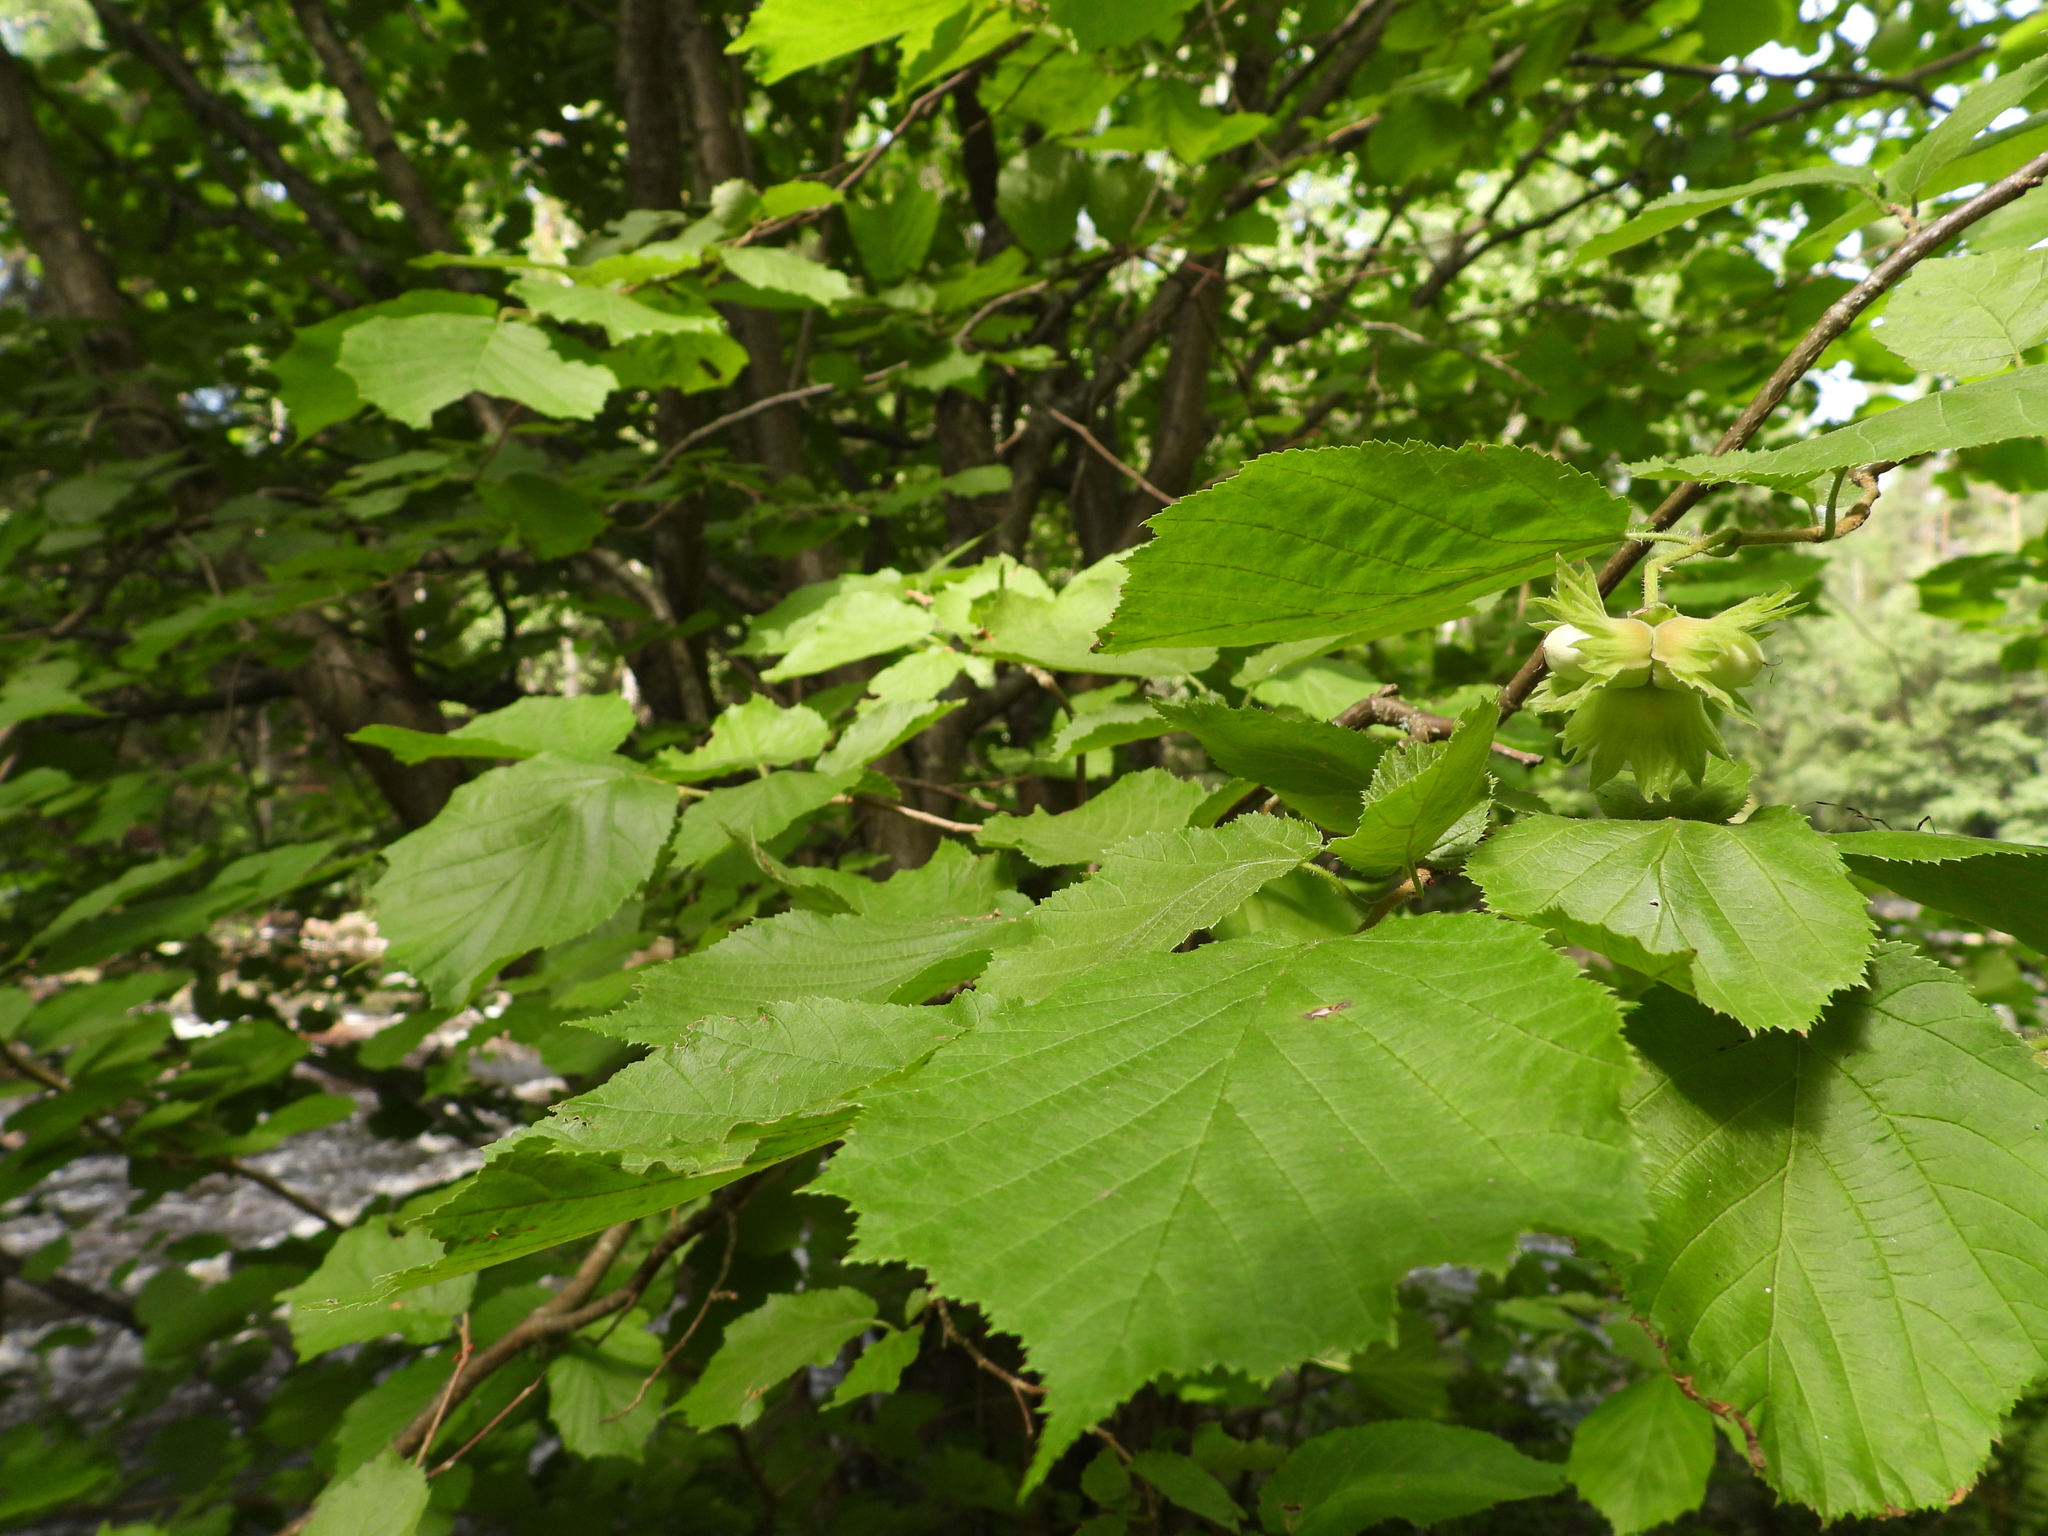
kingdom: Plantae
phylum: Tracheophyta
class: Magnoliopsida
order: Fagales
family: Betulaceae
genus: Corylus
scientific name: Corylus avellana
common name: European hazel
